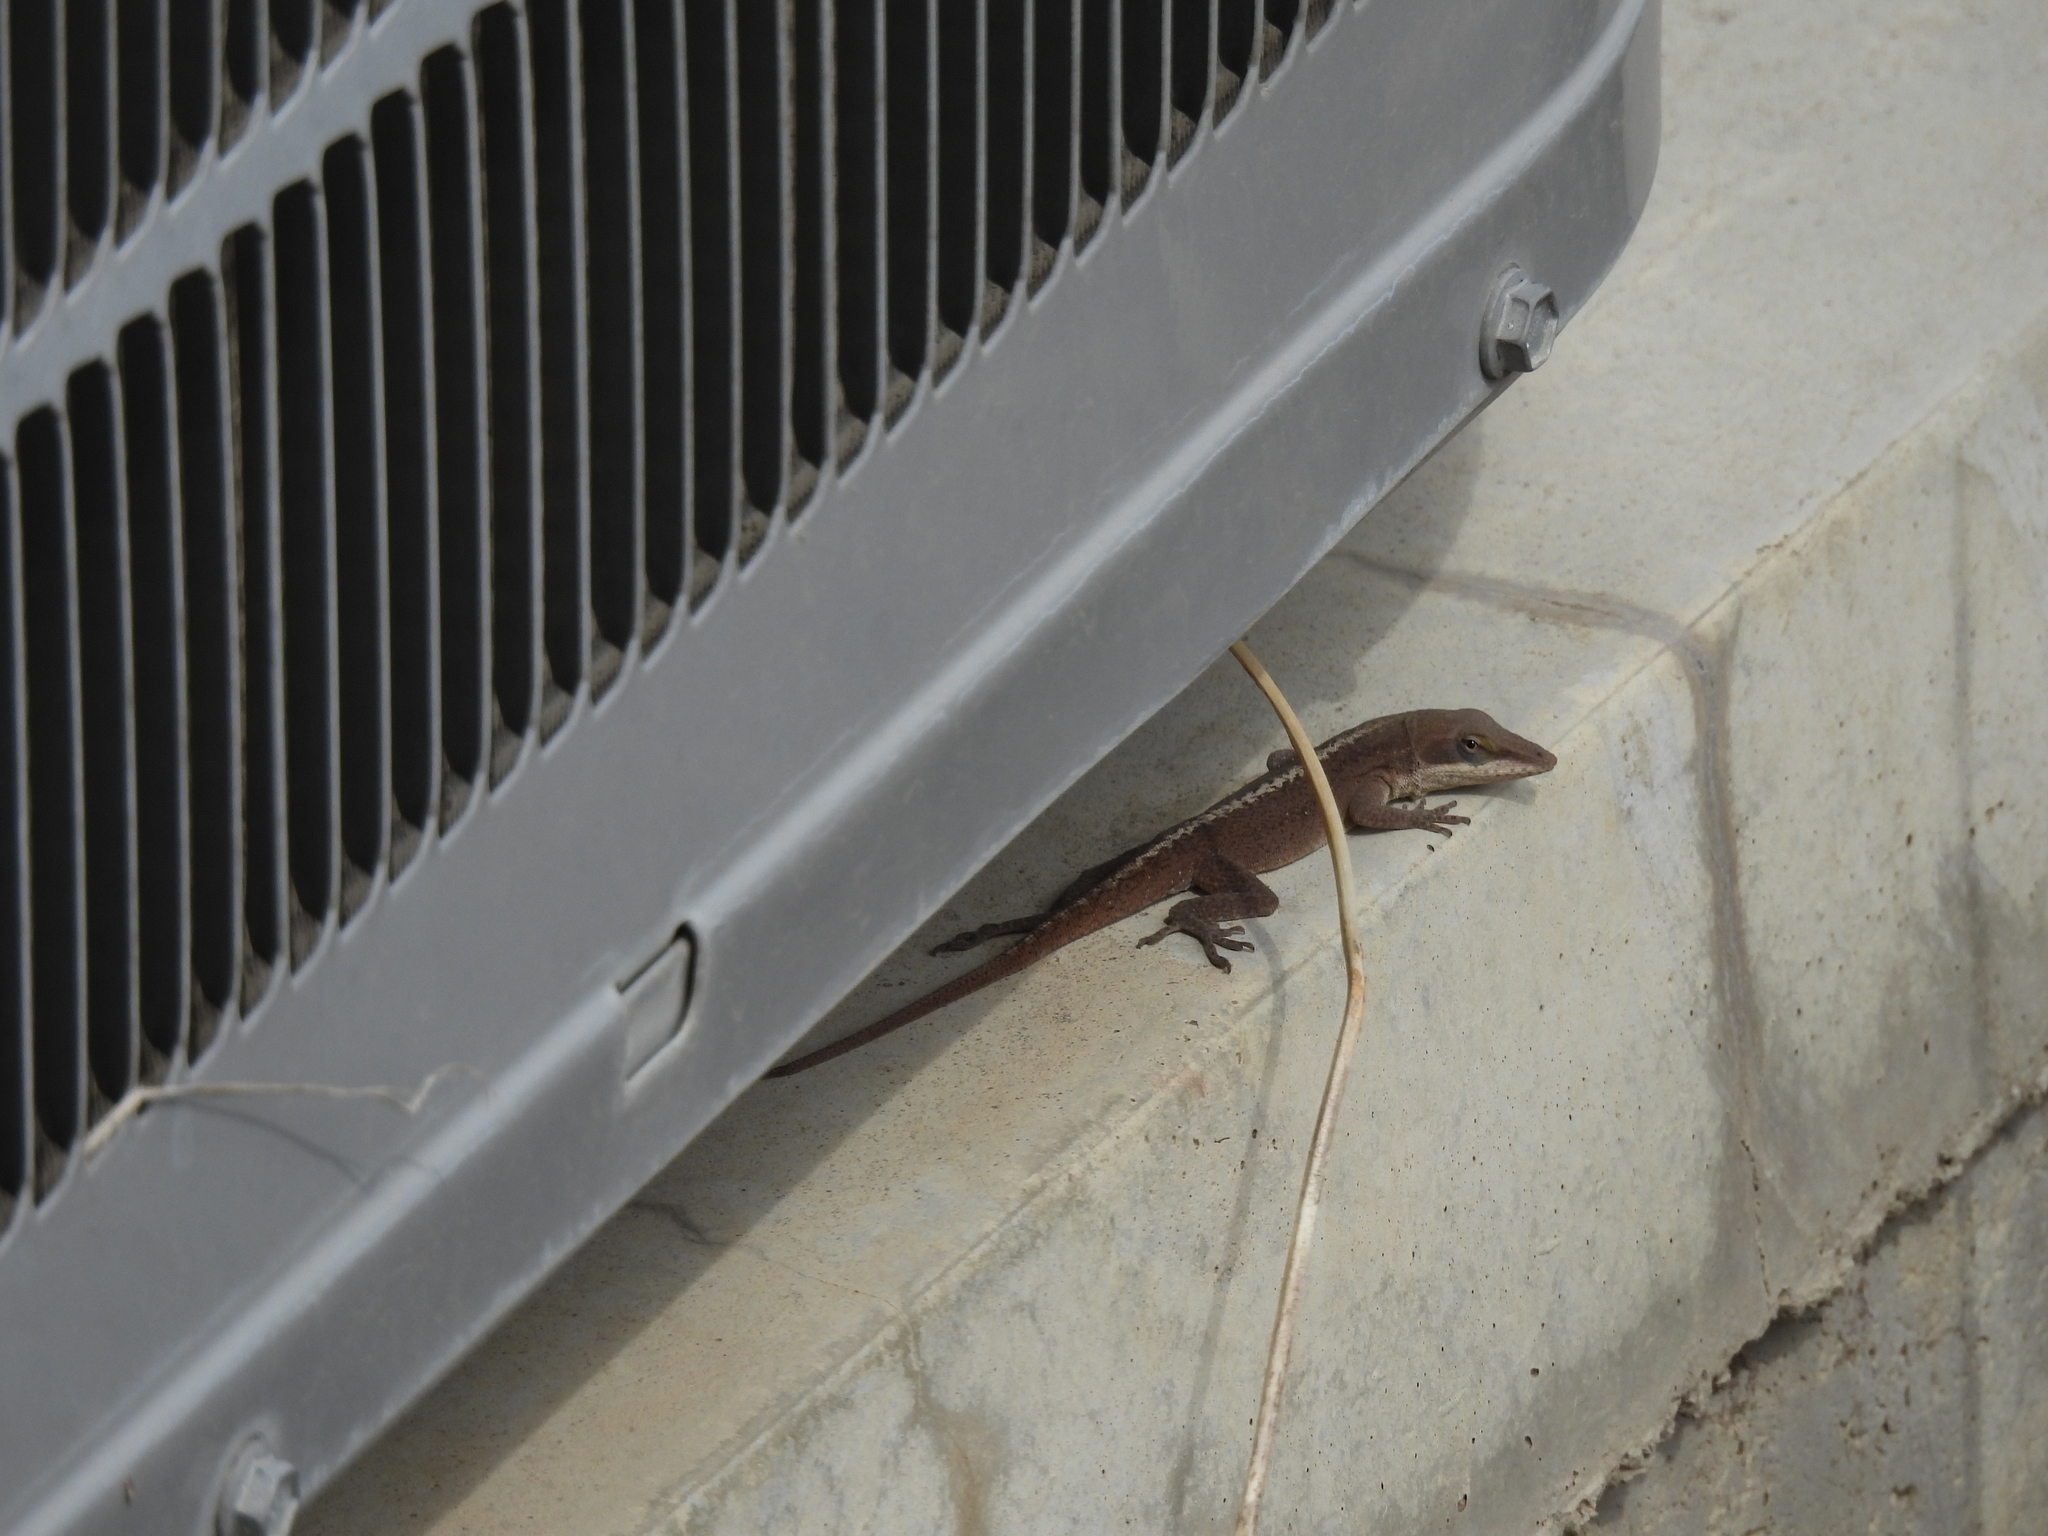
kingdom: Animalia
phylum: Chordata
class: Squamata
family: Dactyloidae
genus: Anolis
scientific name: Anolis carolinensis
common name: Green anole
